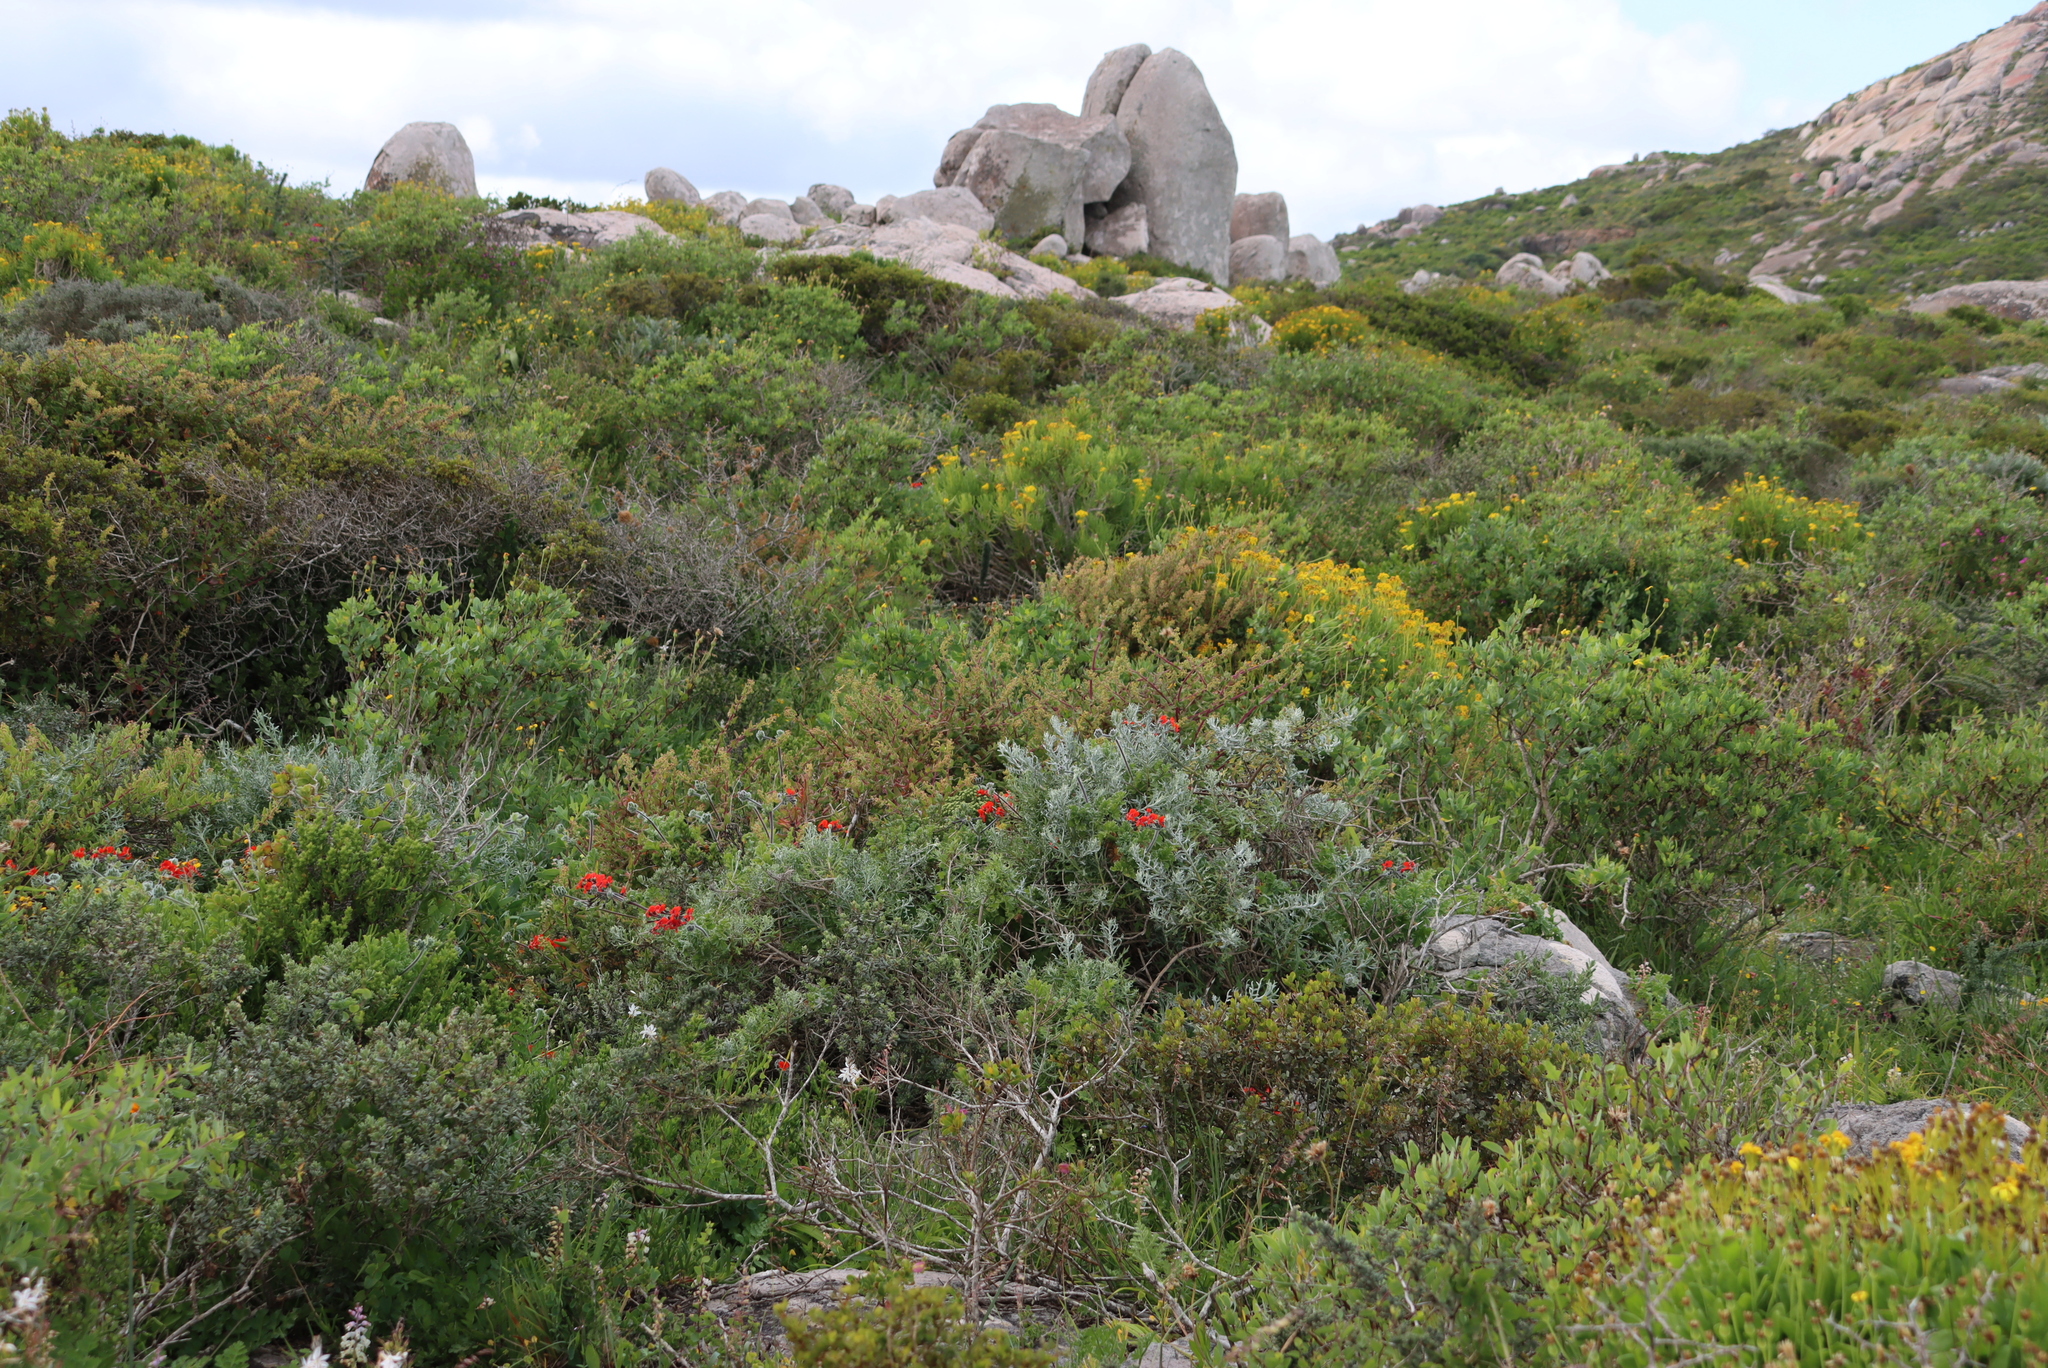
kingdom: Plantae
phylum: Tracheophyta
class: Magnoliopsida
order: Geraniales
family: Geraniaceae
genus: Pelargonium
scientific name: Pelargonium fulgidum
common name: Celandine-leaf pelargonium
